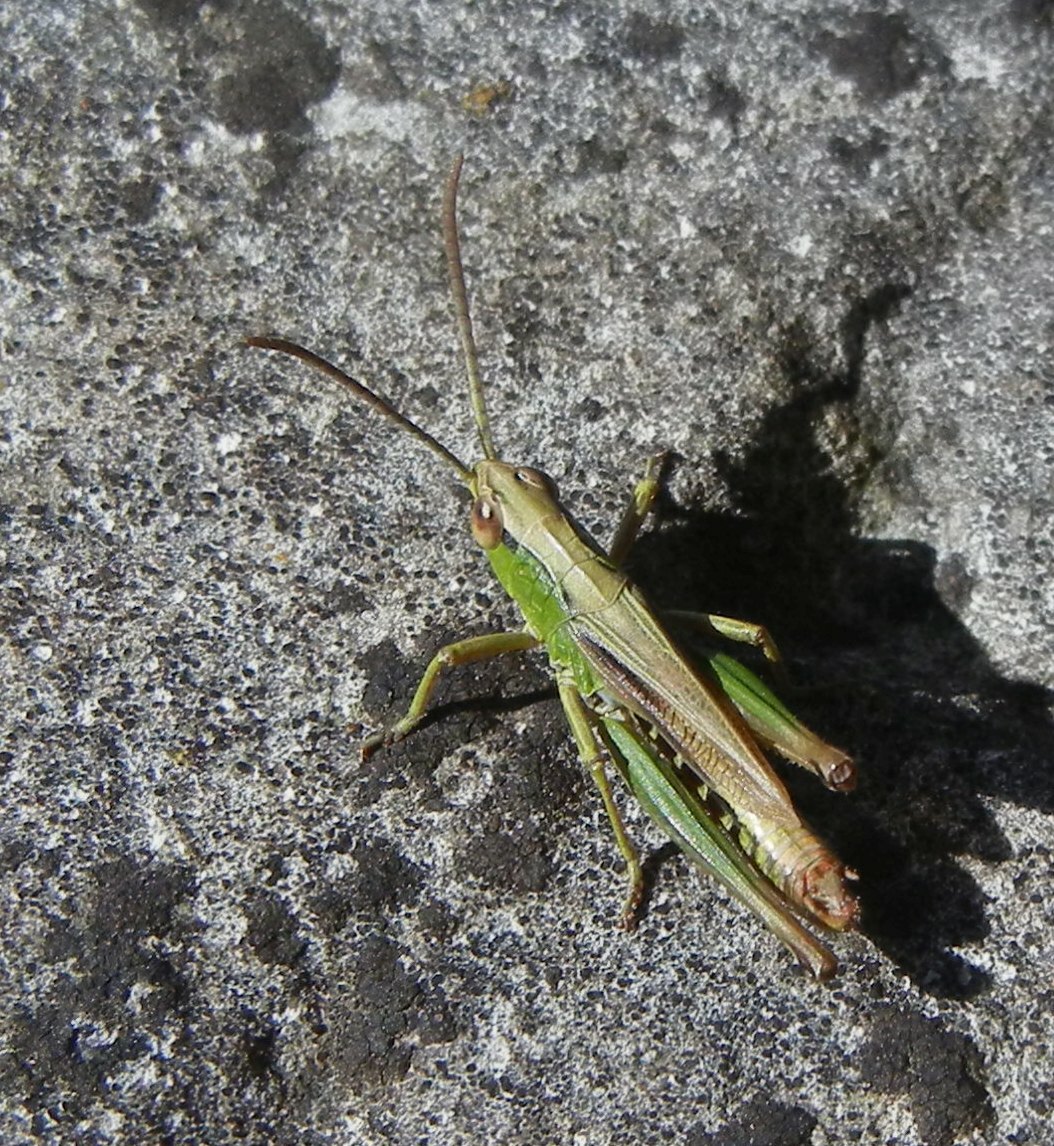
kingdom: Animalia
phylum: Arthropoda
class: Insecta
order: Orthoptera
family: Acrididae
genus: Pseudochorthippus
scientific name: Pseudochorthippus parallelus
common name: Meadow grasshopper
